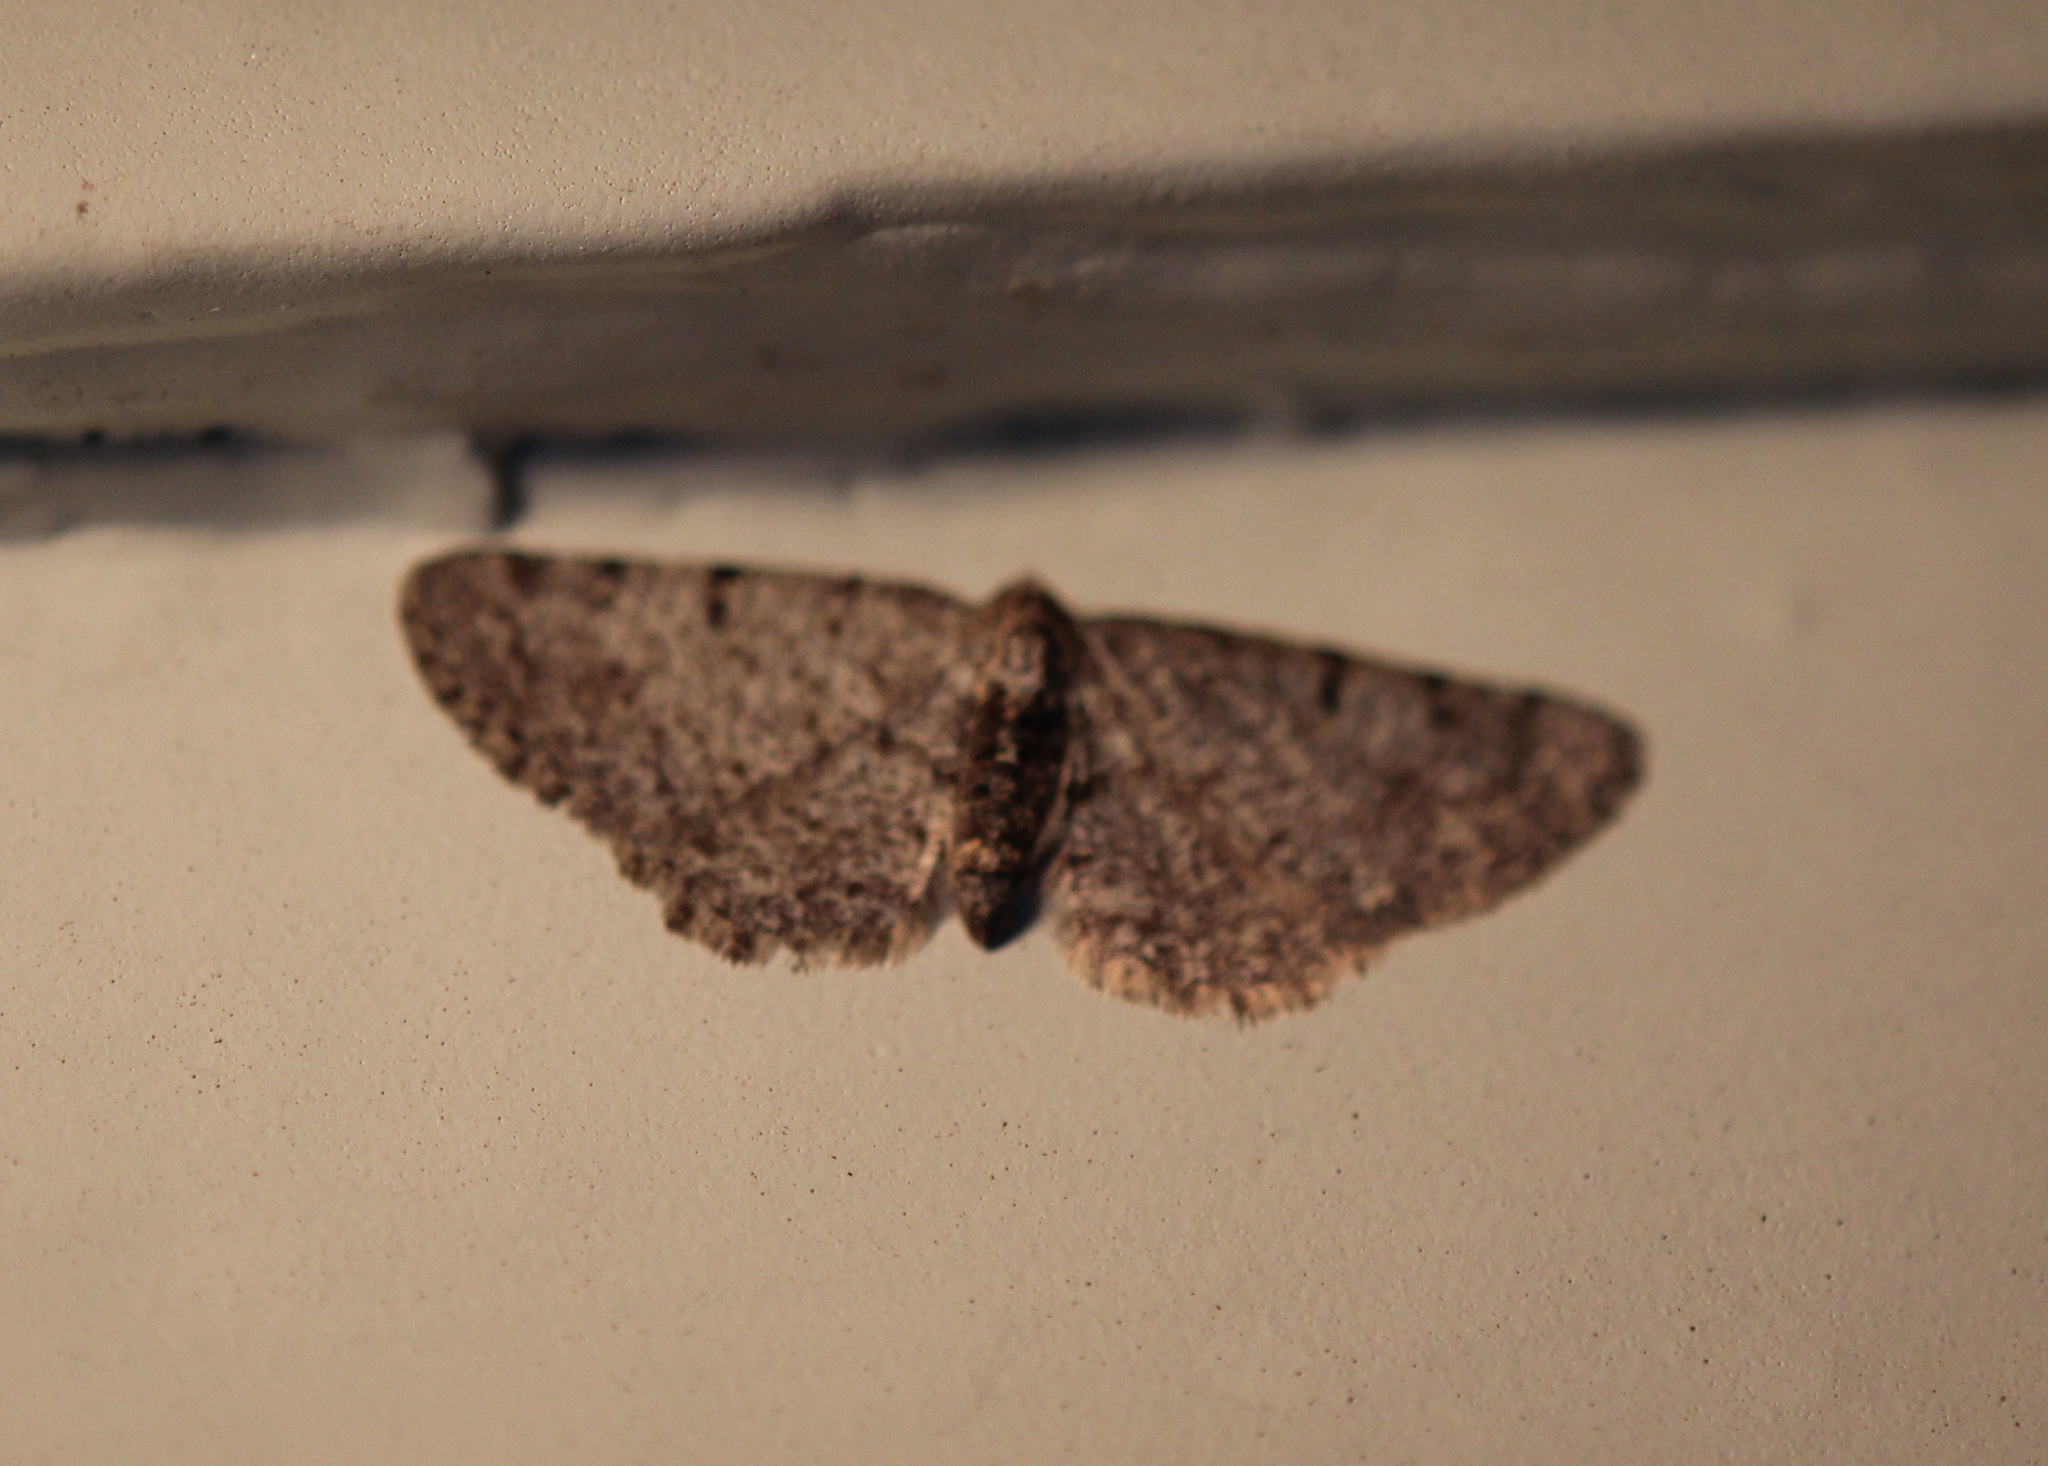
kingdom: Animalia
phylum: Arthropoda
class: Insecta
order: Lepidoptera
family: Geometridae
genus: Aethalura
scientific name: Aethalura intertexta
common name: Four-barred gray
